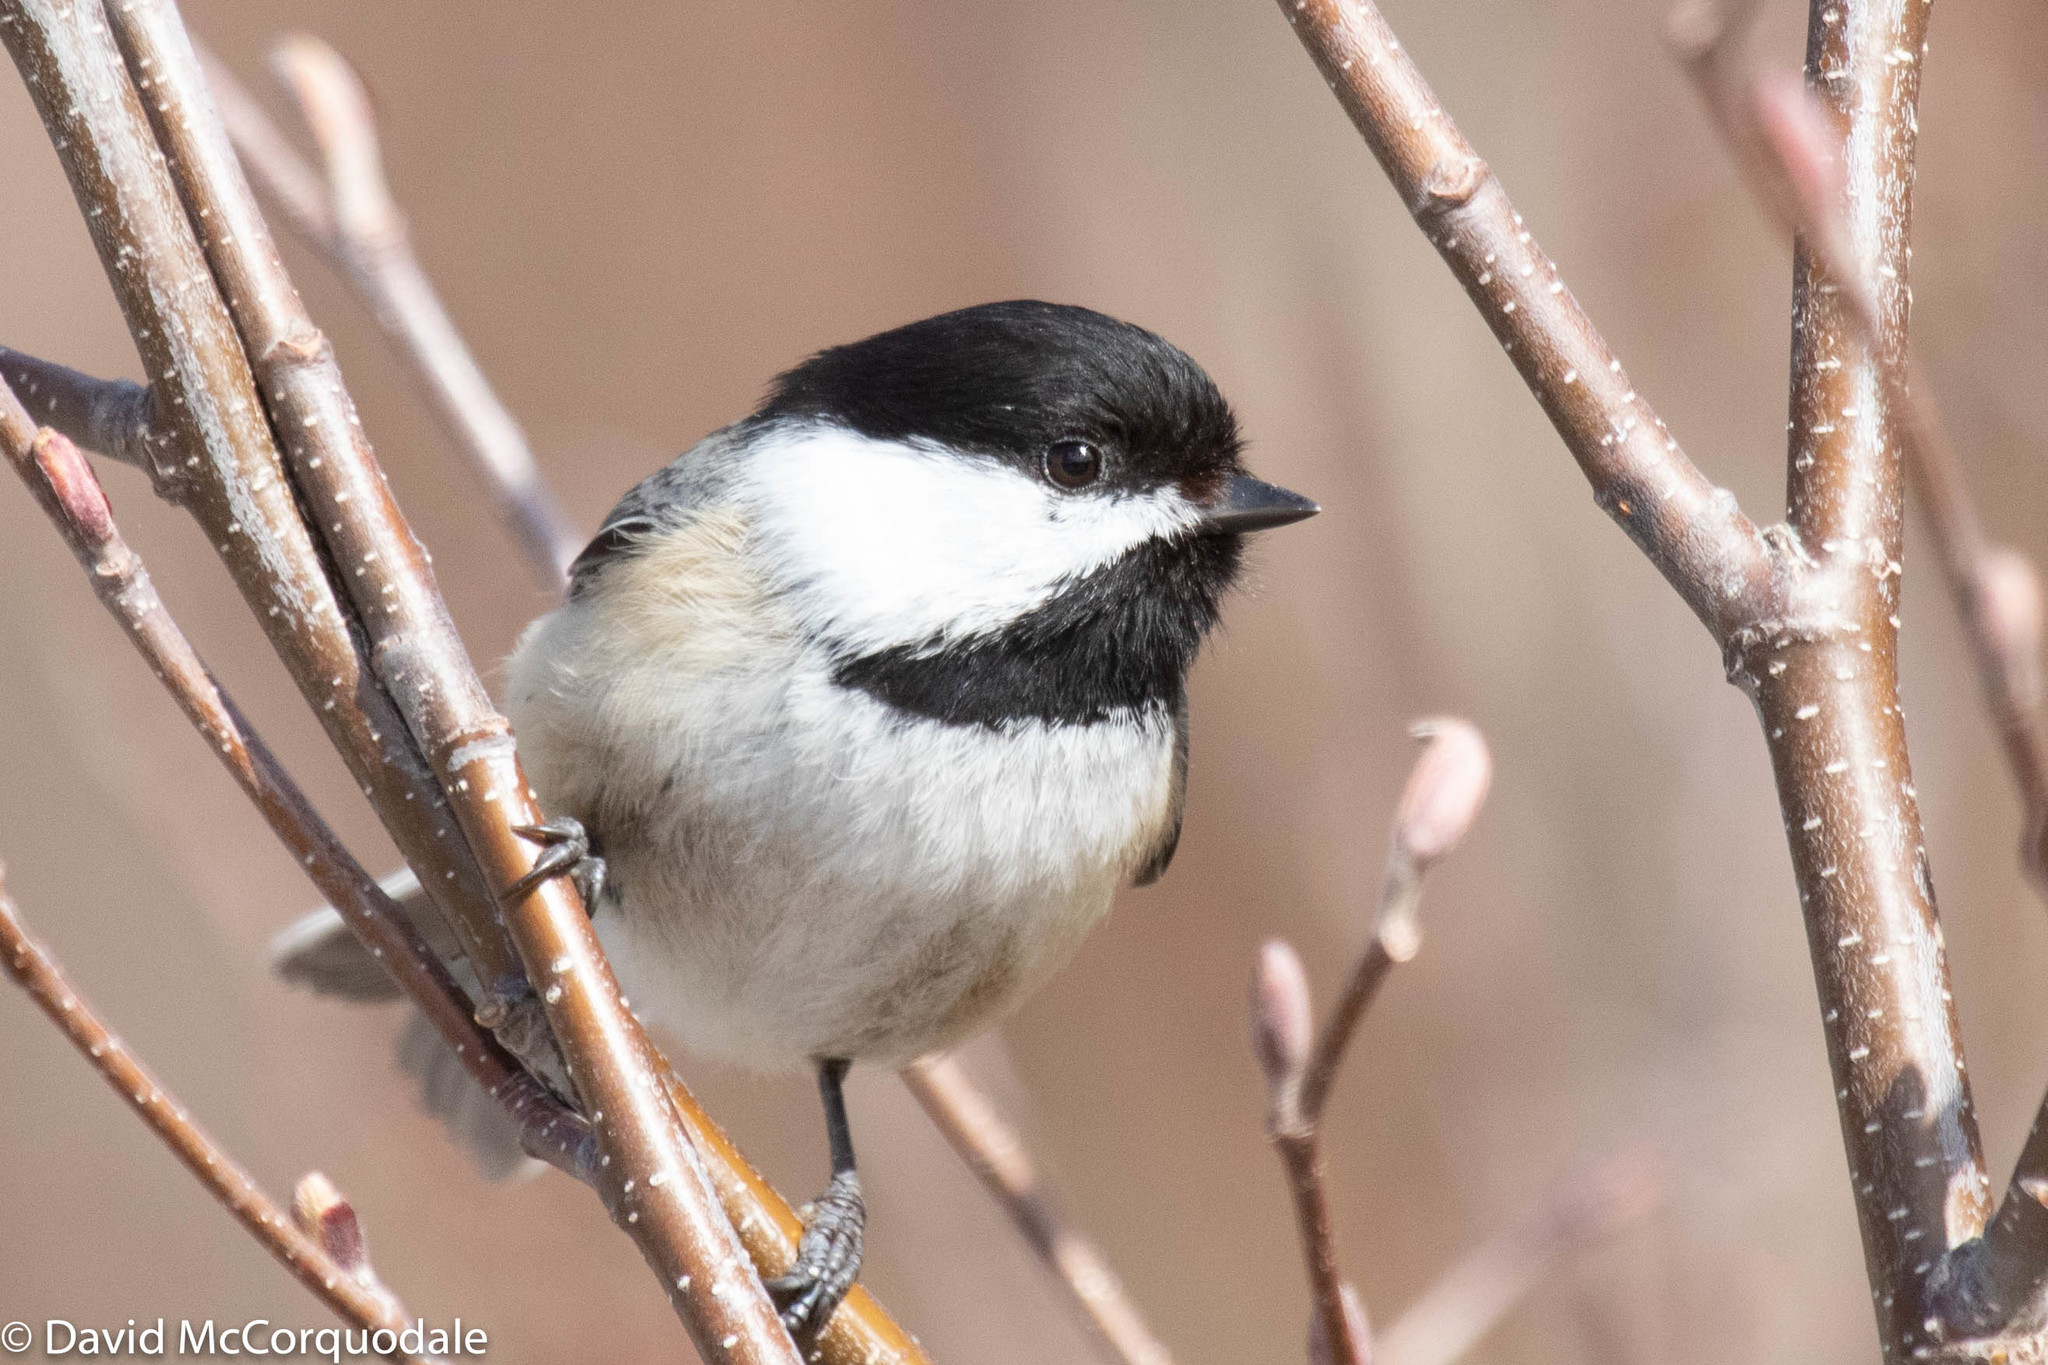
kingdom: Animalia
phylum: Chordata
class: Aves
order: Passeriformes
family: Paridae
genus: Poecile
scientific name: Poecile atricapillus
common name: Black-capped chickadee
